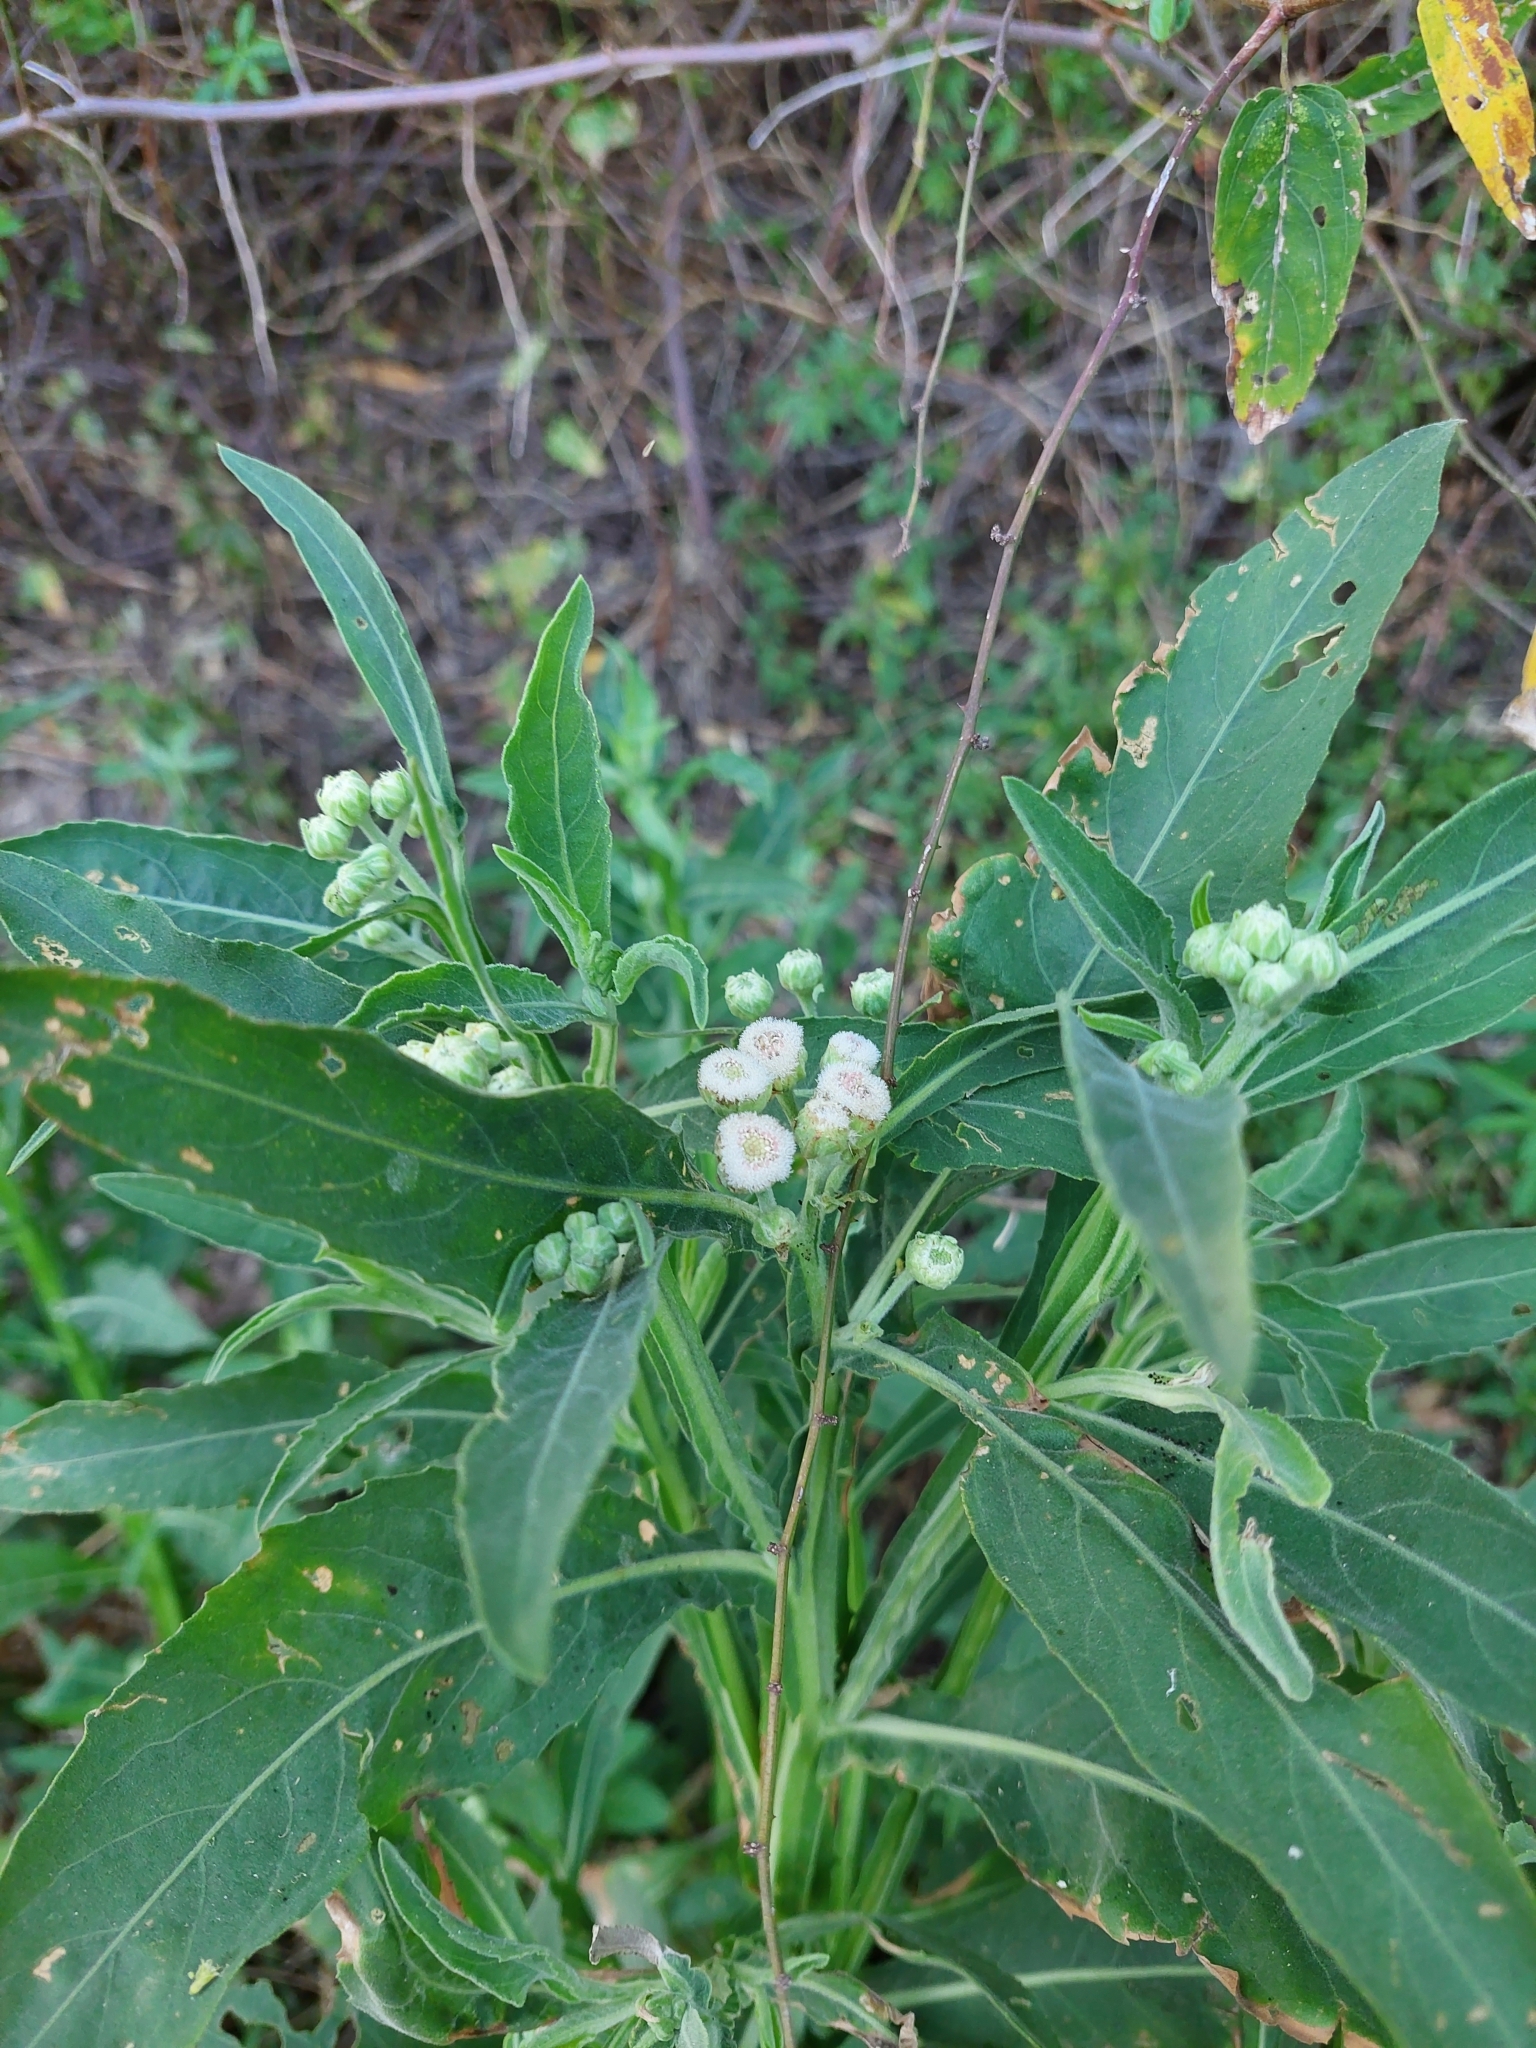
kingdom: Plantae
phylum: Tracheophyta
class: Magnoliopsida
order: Asterales
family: Asteraceae
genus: Pluchea
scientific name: Pluchea sagittalis
